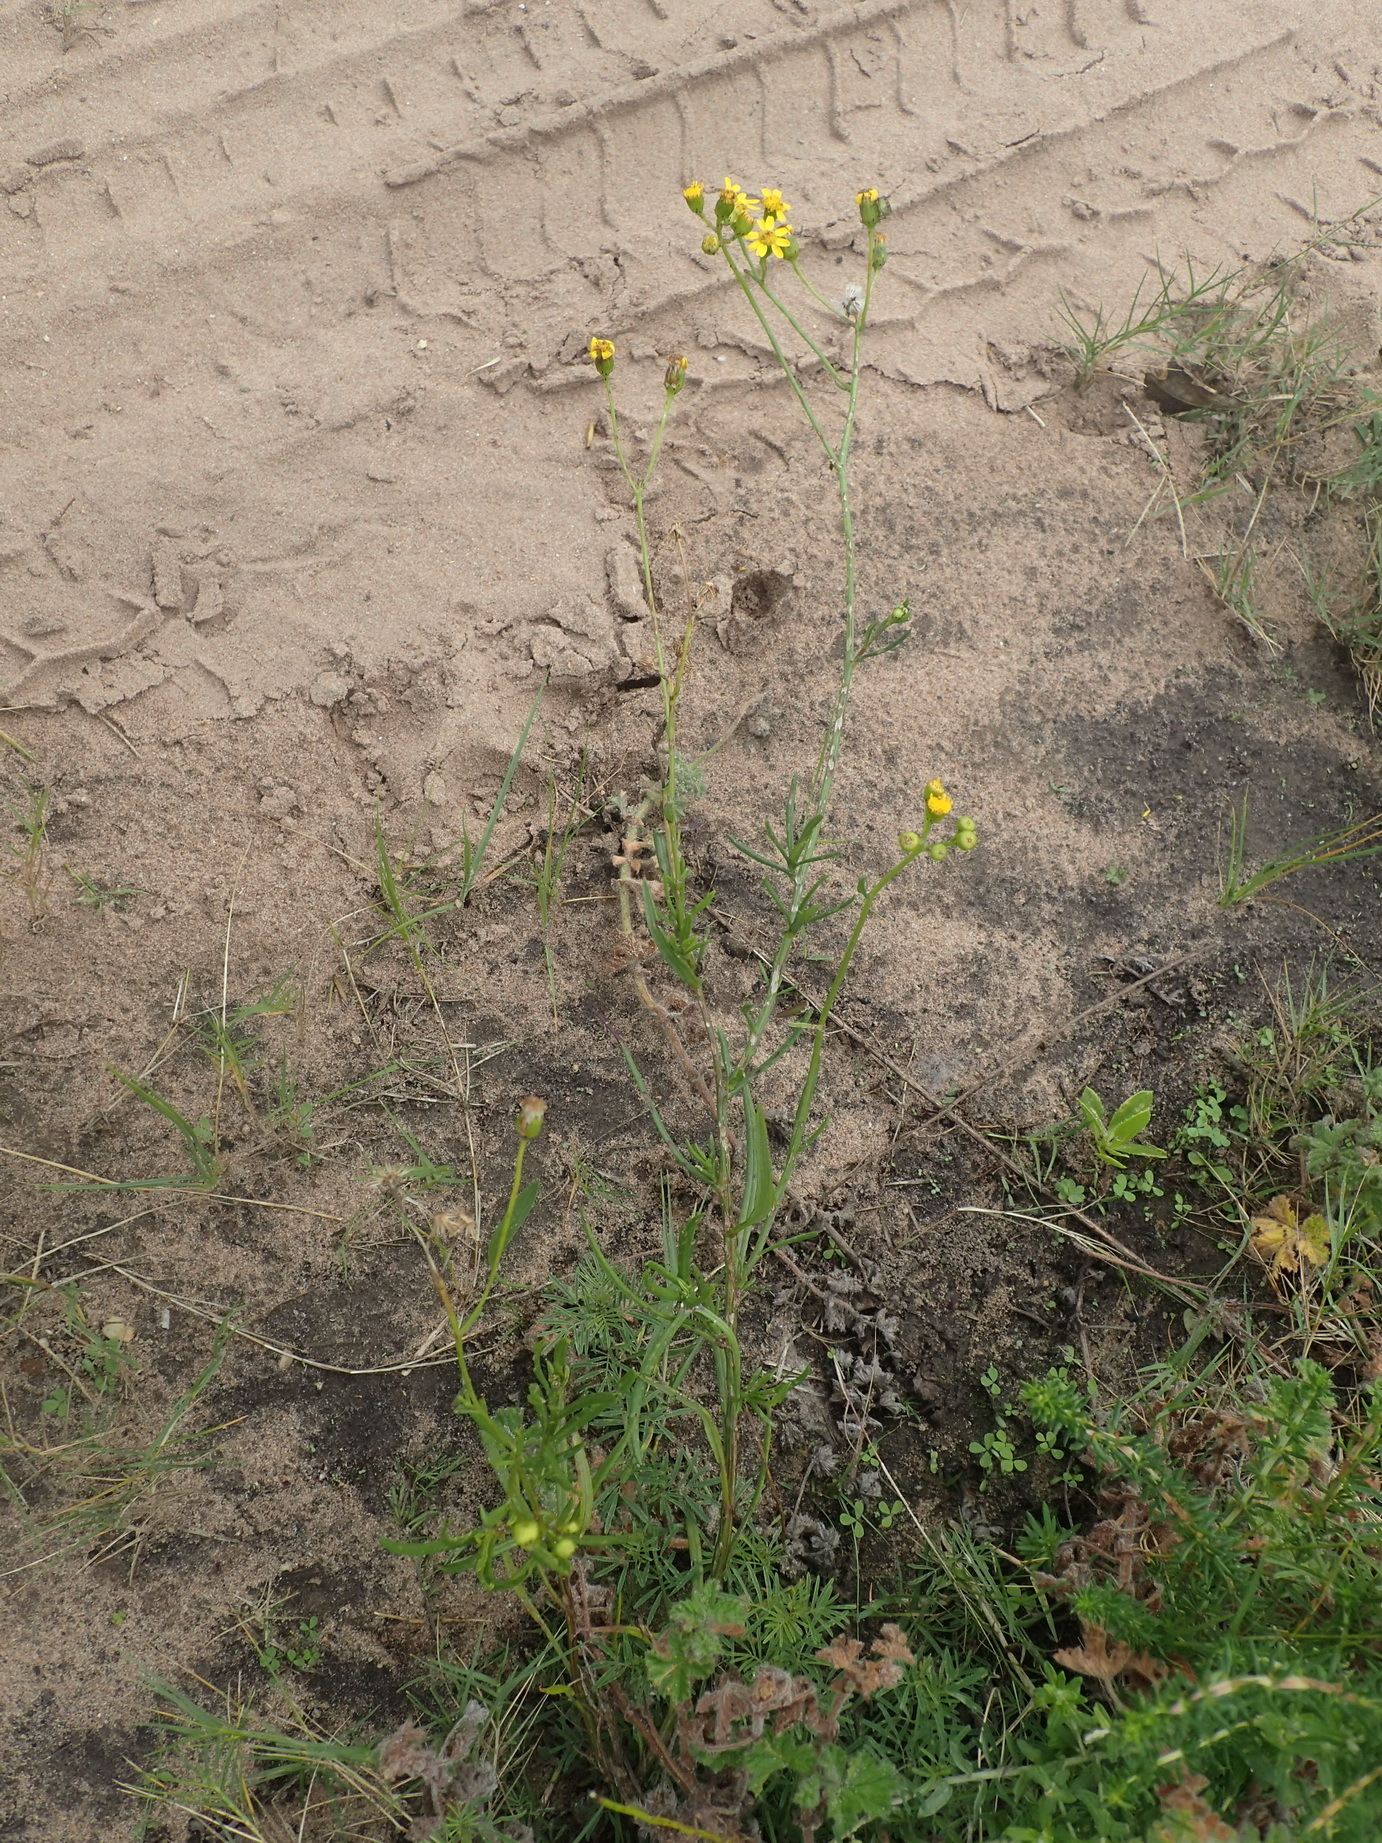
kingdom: Plantae
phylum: Tracheophyta
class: Magnoliopsida
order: Asterales
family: Asteraceae
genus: Senecio
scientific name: Senecio burchellii
